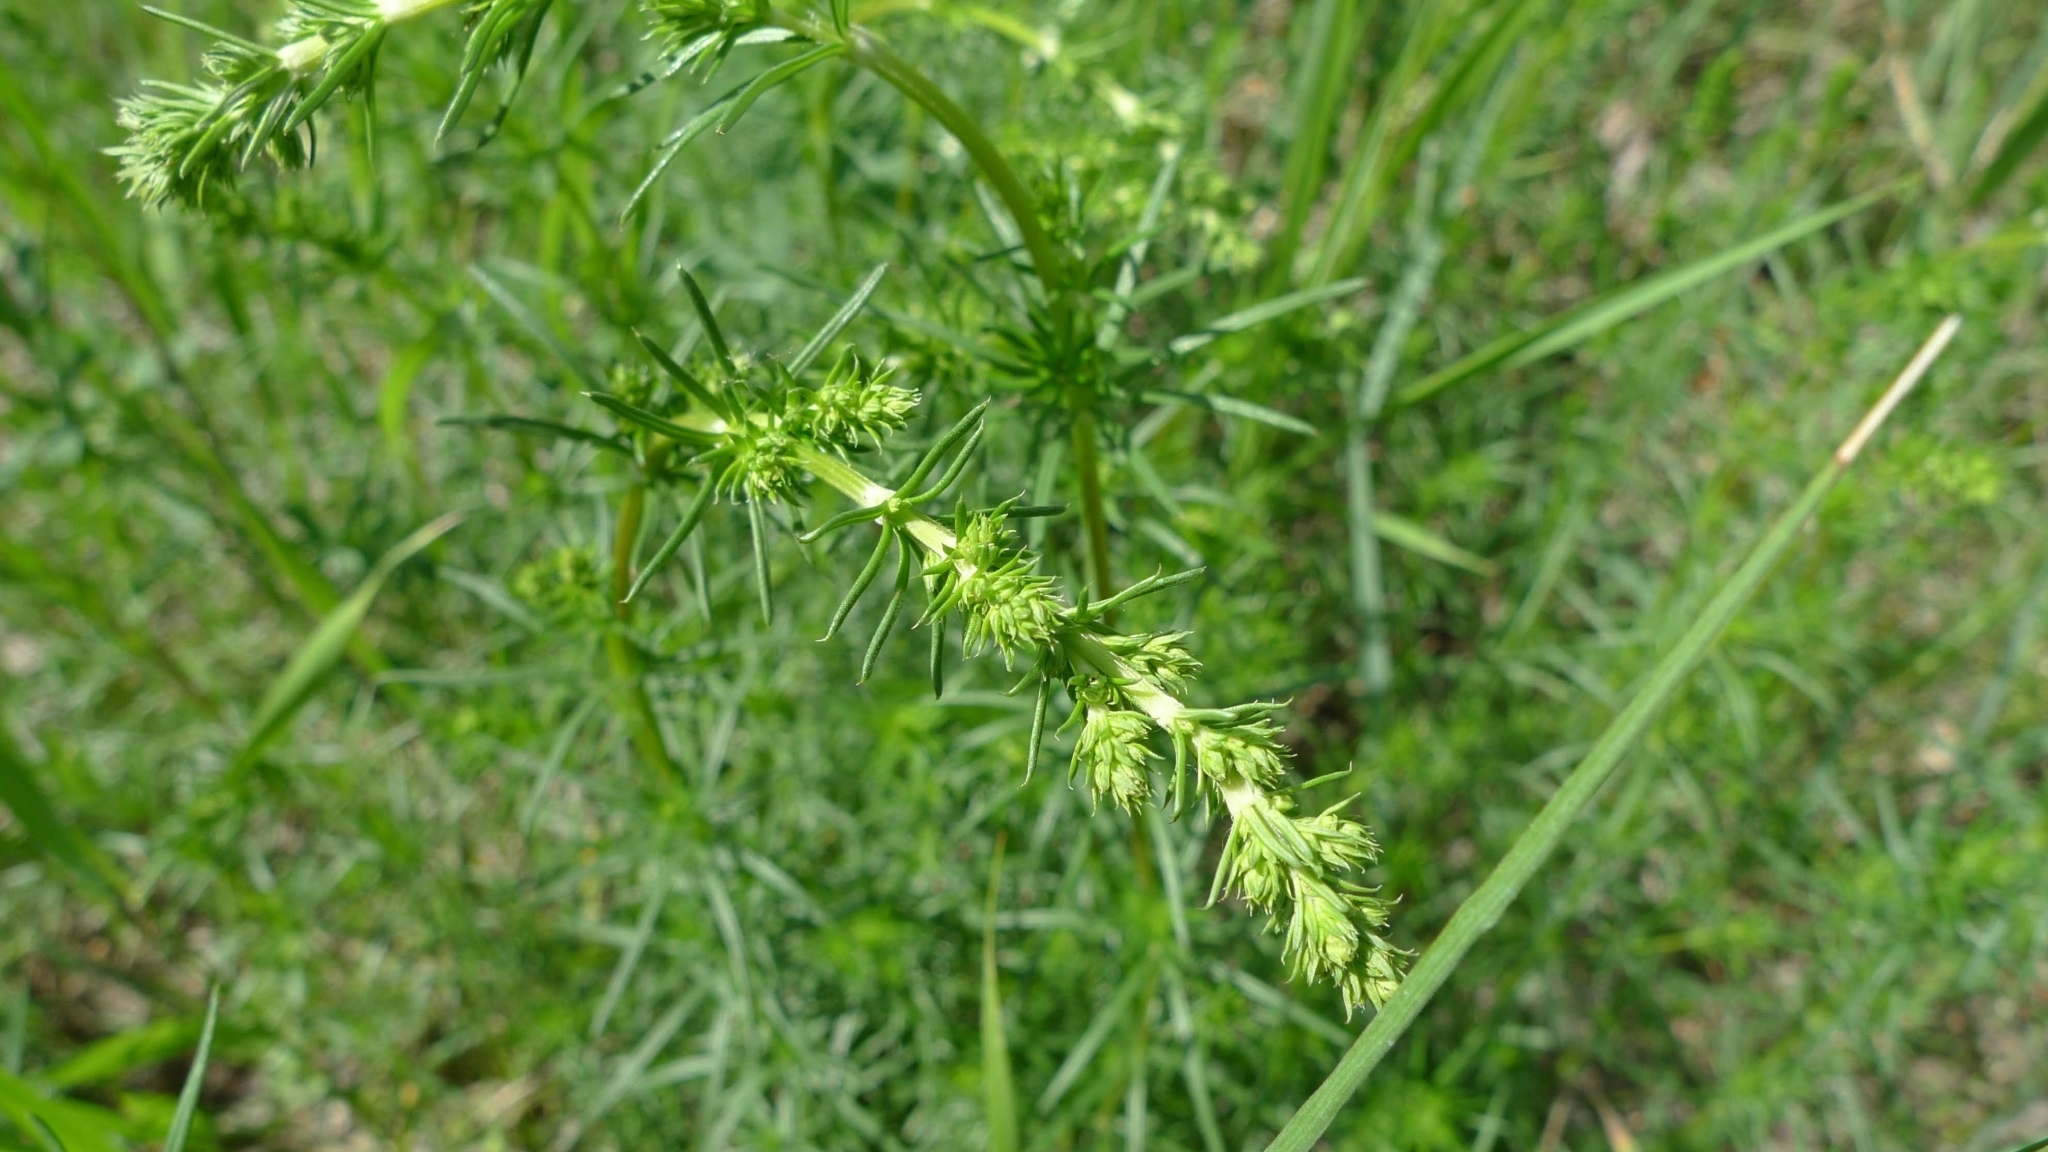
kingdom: Plantae
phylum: Tracheophyta
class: Magnoliopsida
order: Gentianales
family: Rubiaceae
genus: Galium
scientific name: Galium verum
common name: Lady's bedstraw
